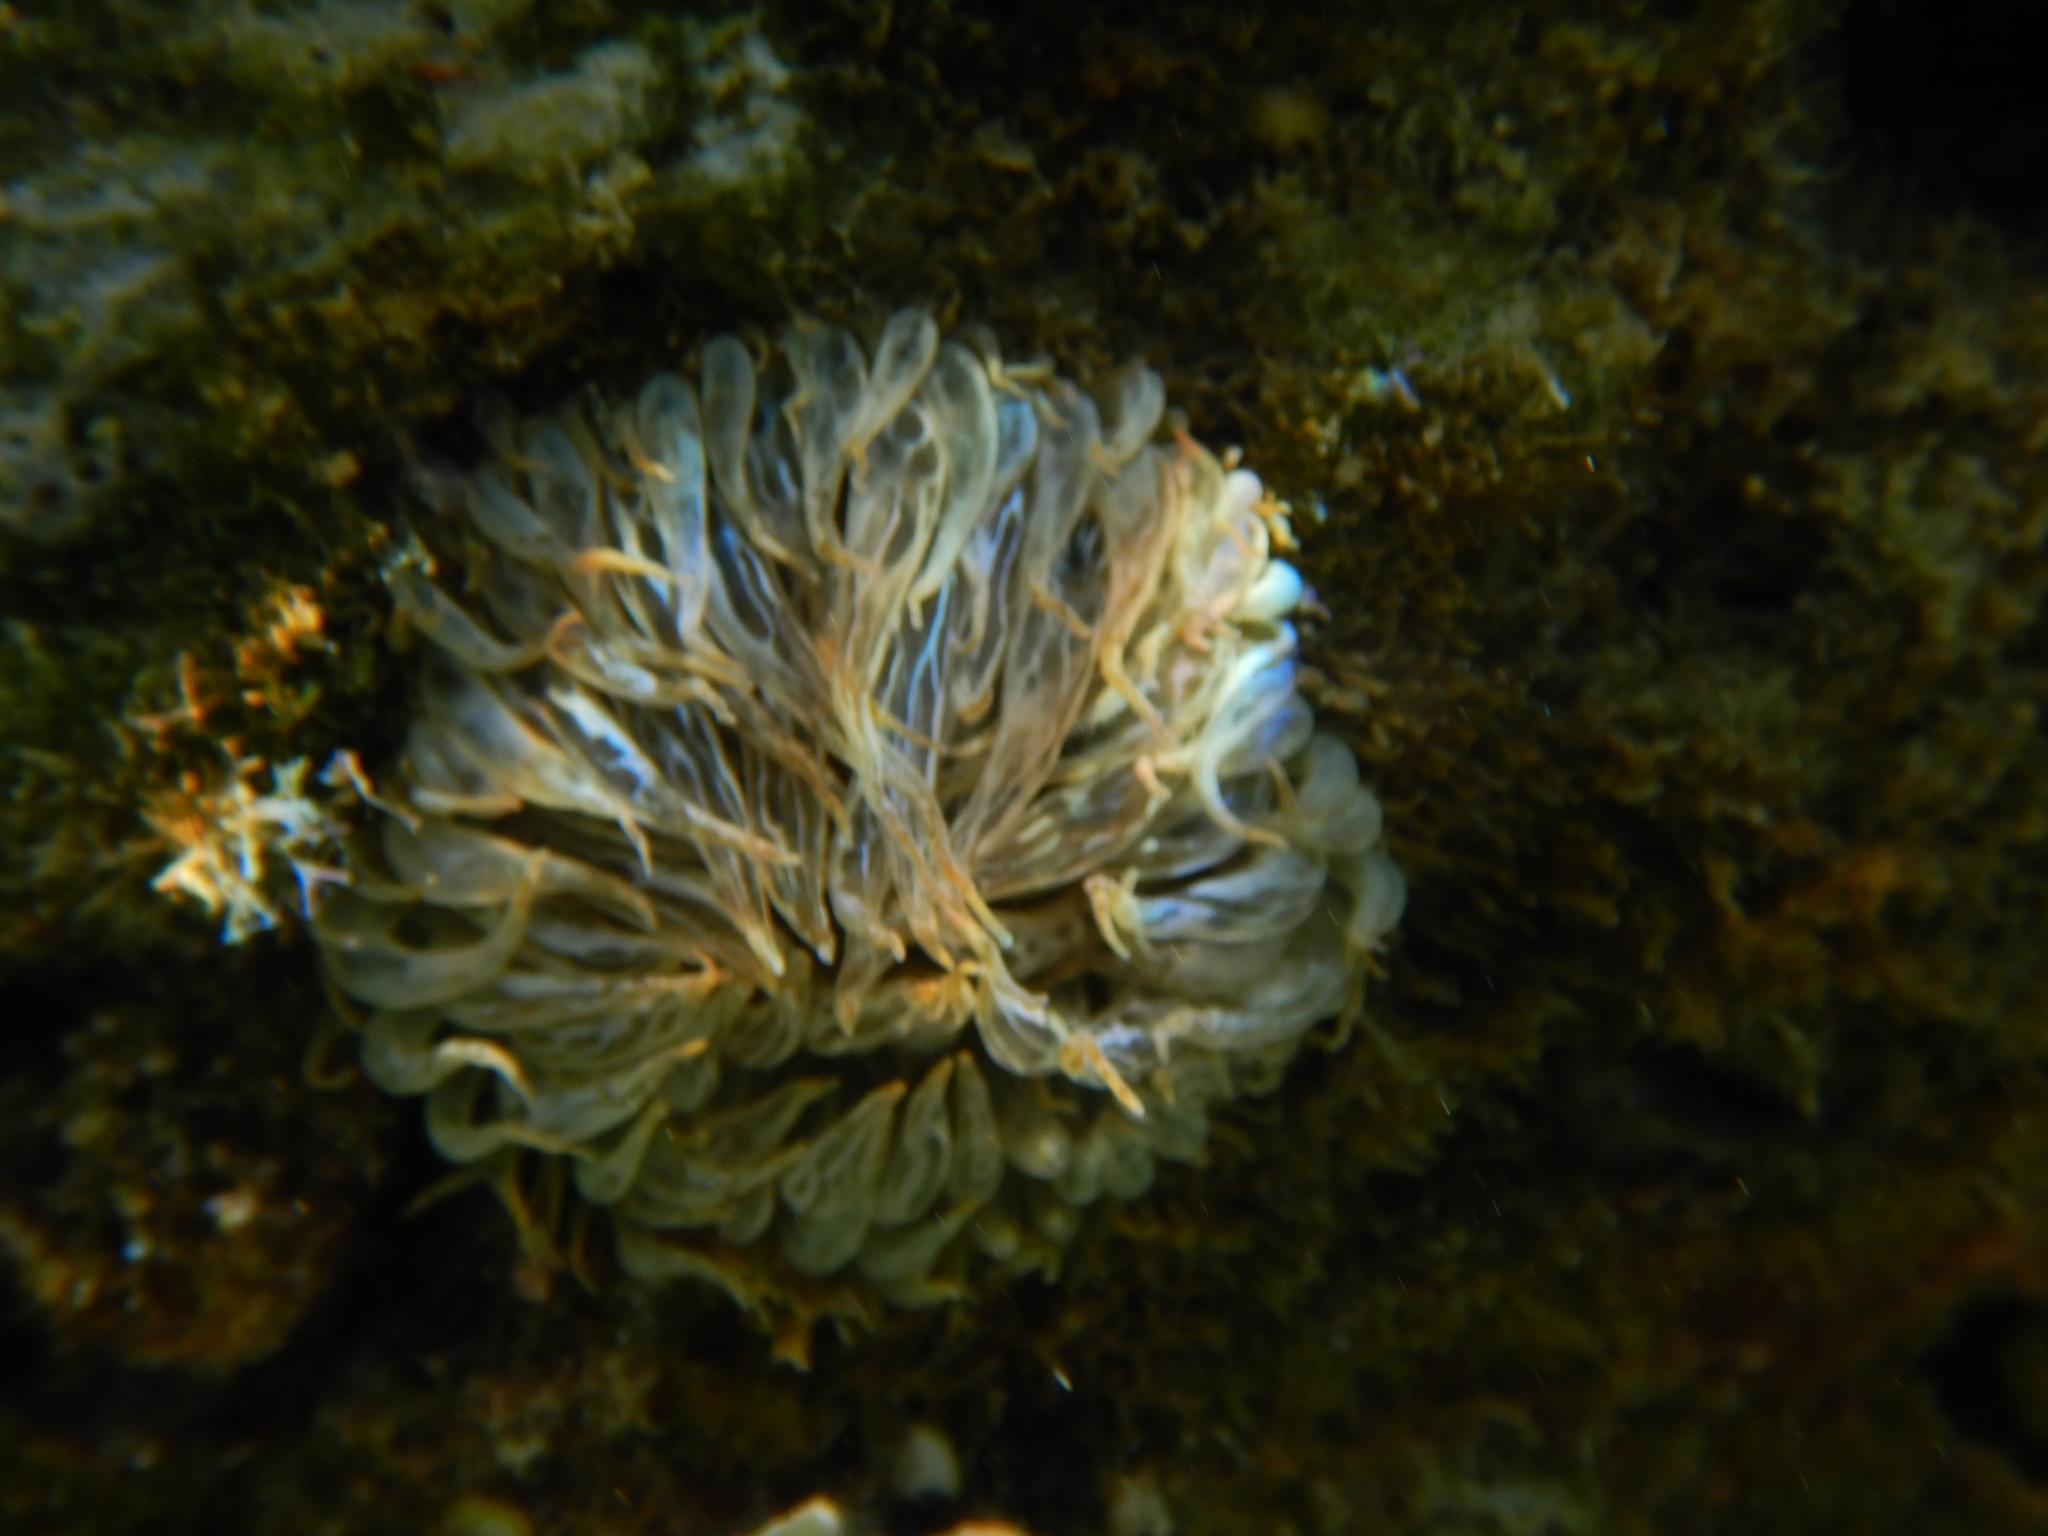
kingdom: Animalia
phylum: Cnidaria
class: Anthozoa
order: Actiniaria
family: Aiptasiidae
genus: Aiptasia
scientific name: Aiptasia mutabilis
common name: Trumpet anemone
